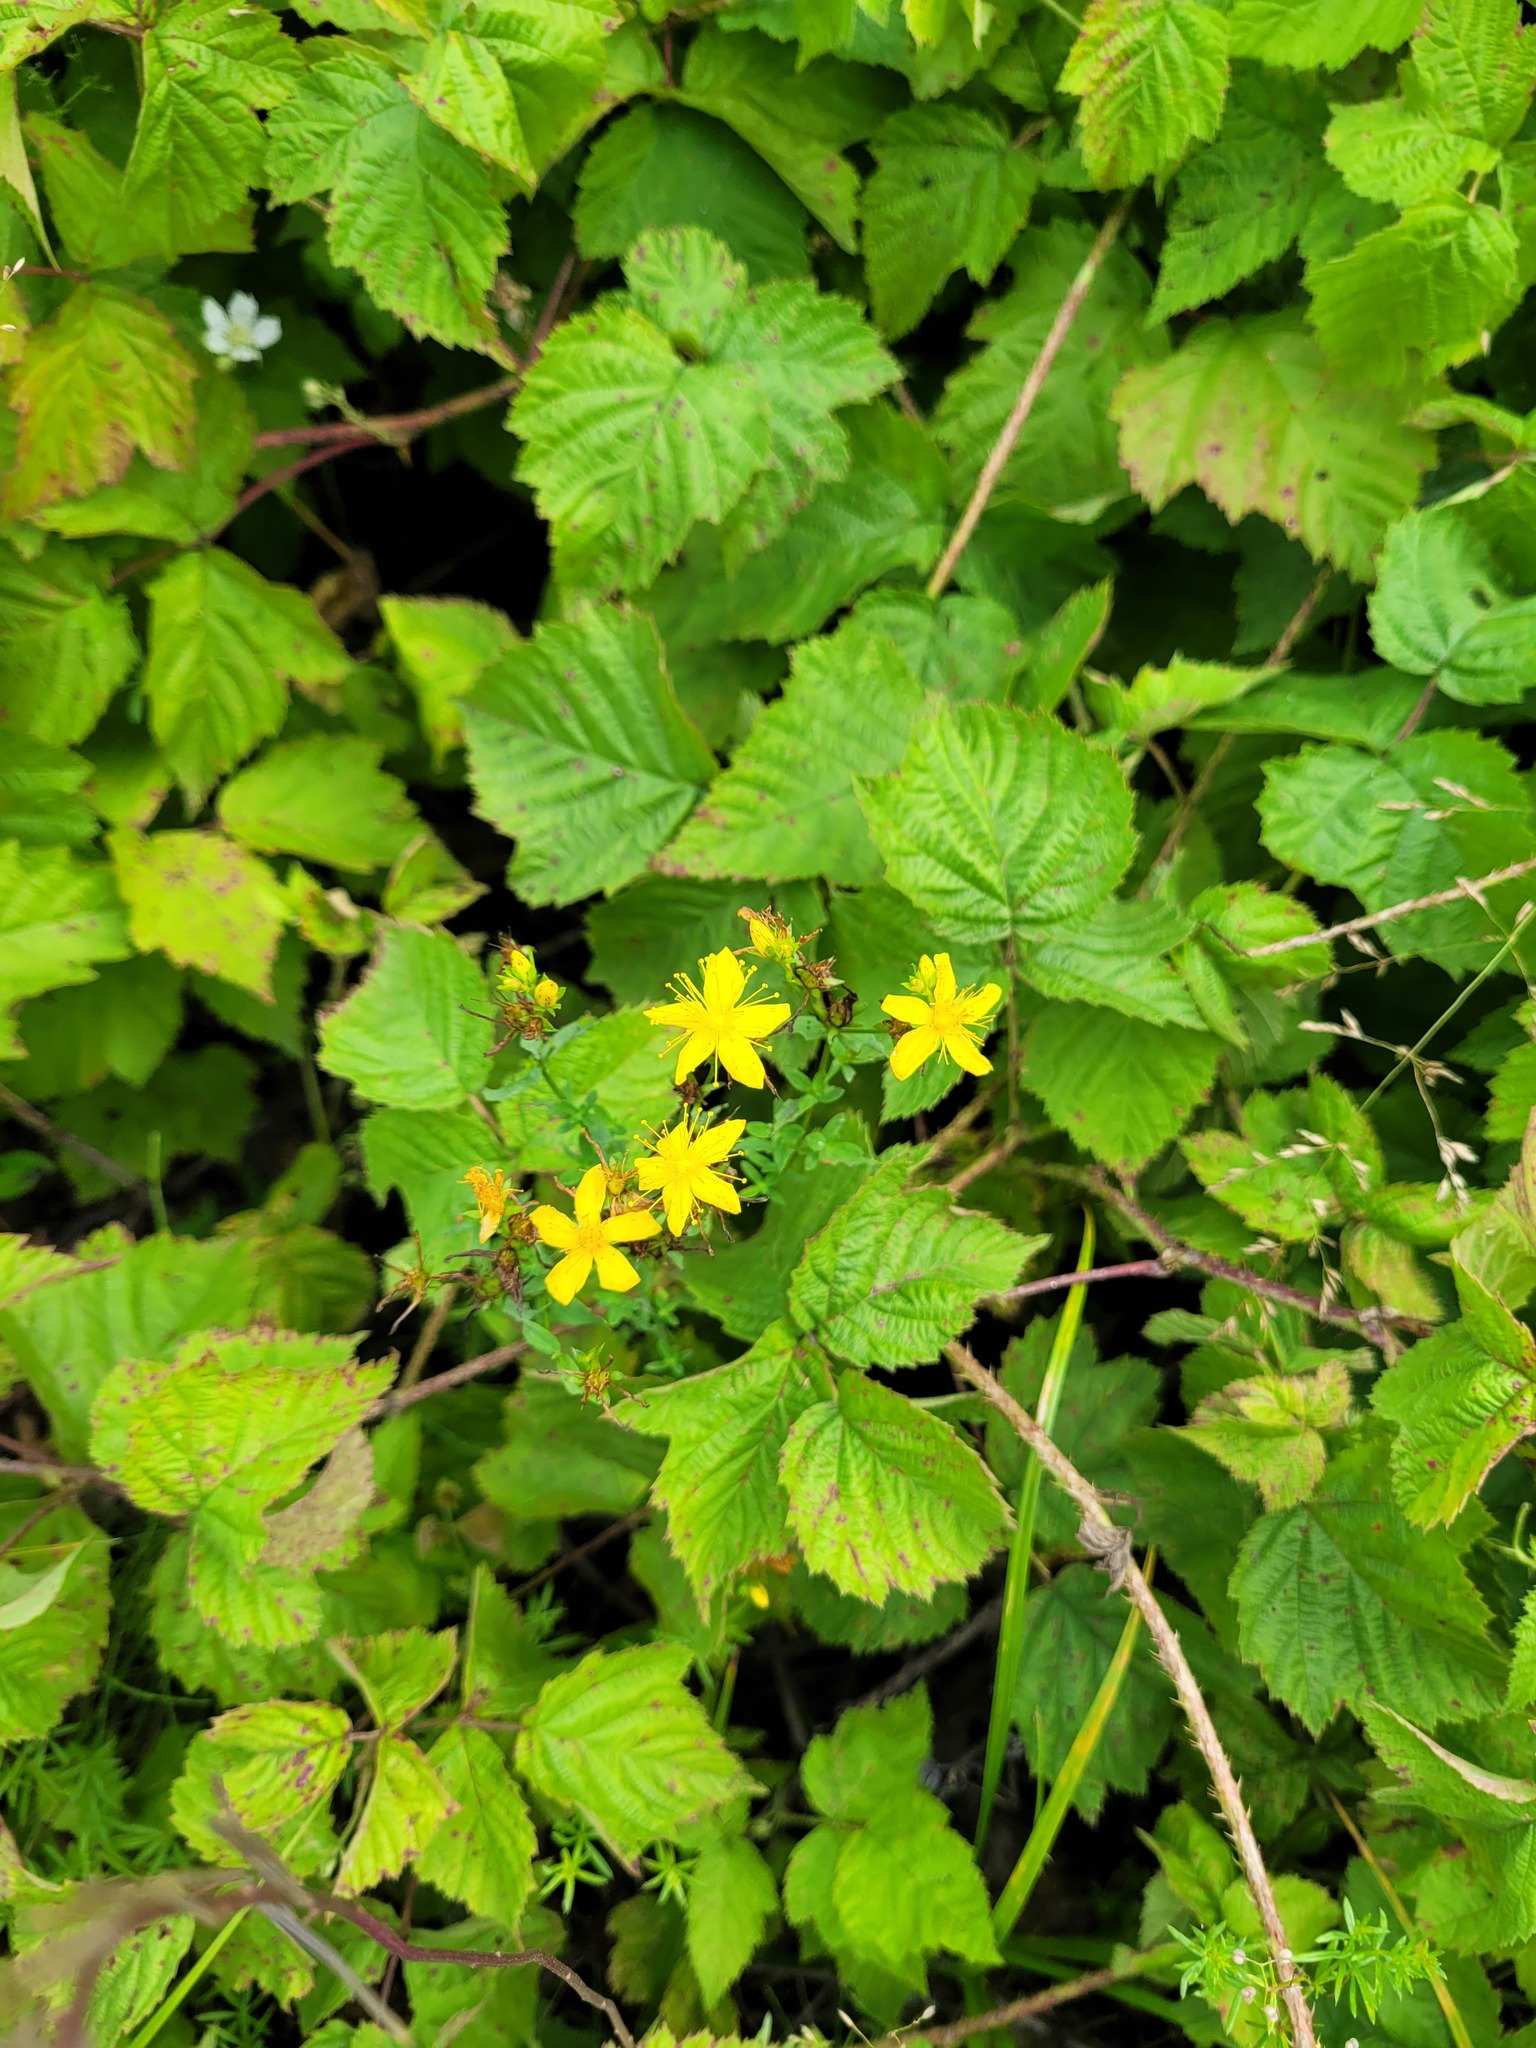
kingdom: Plantae
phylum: Tracheophyta
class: Magnoliopsida
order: Malpighiales
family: Hypericaceae
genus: Hypericum
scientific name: Hypericum perforatum
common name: Common st. johnswort
